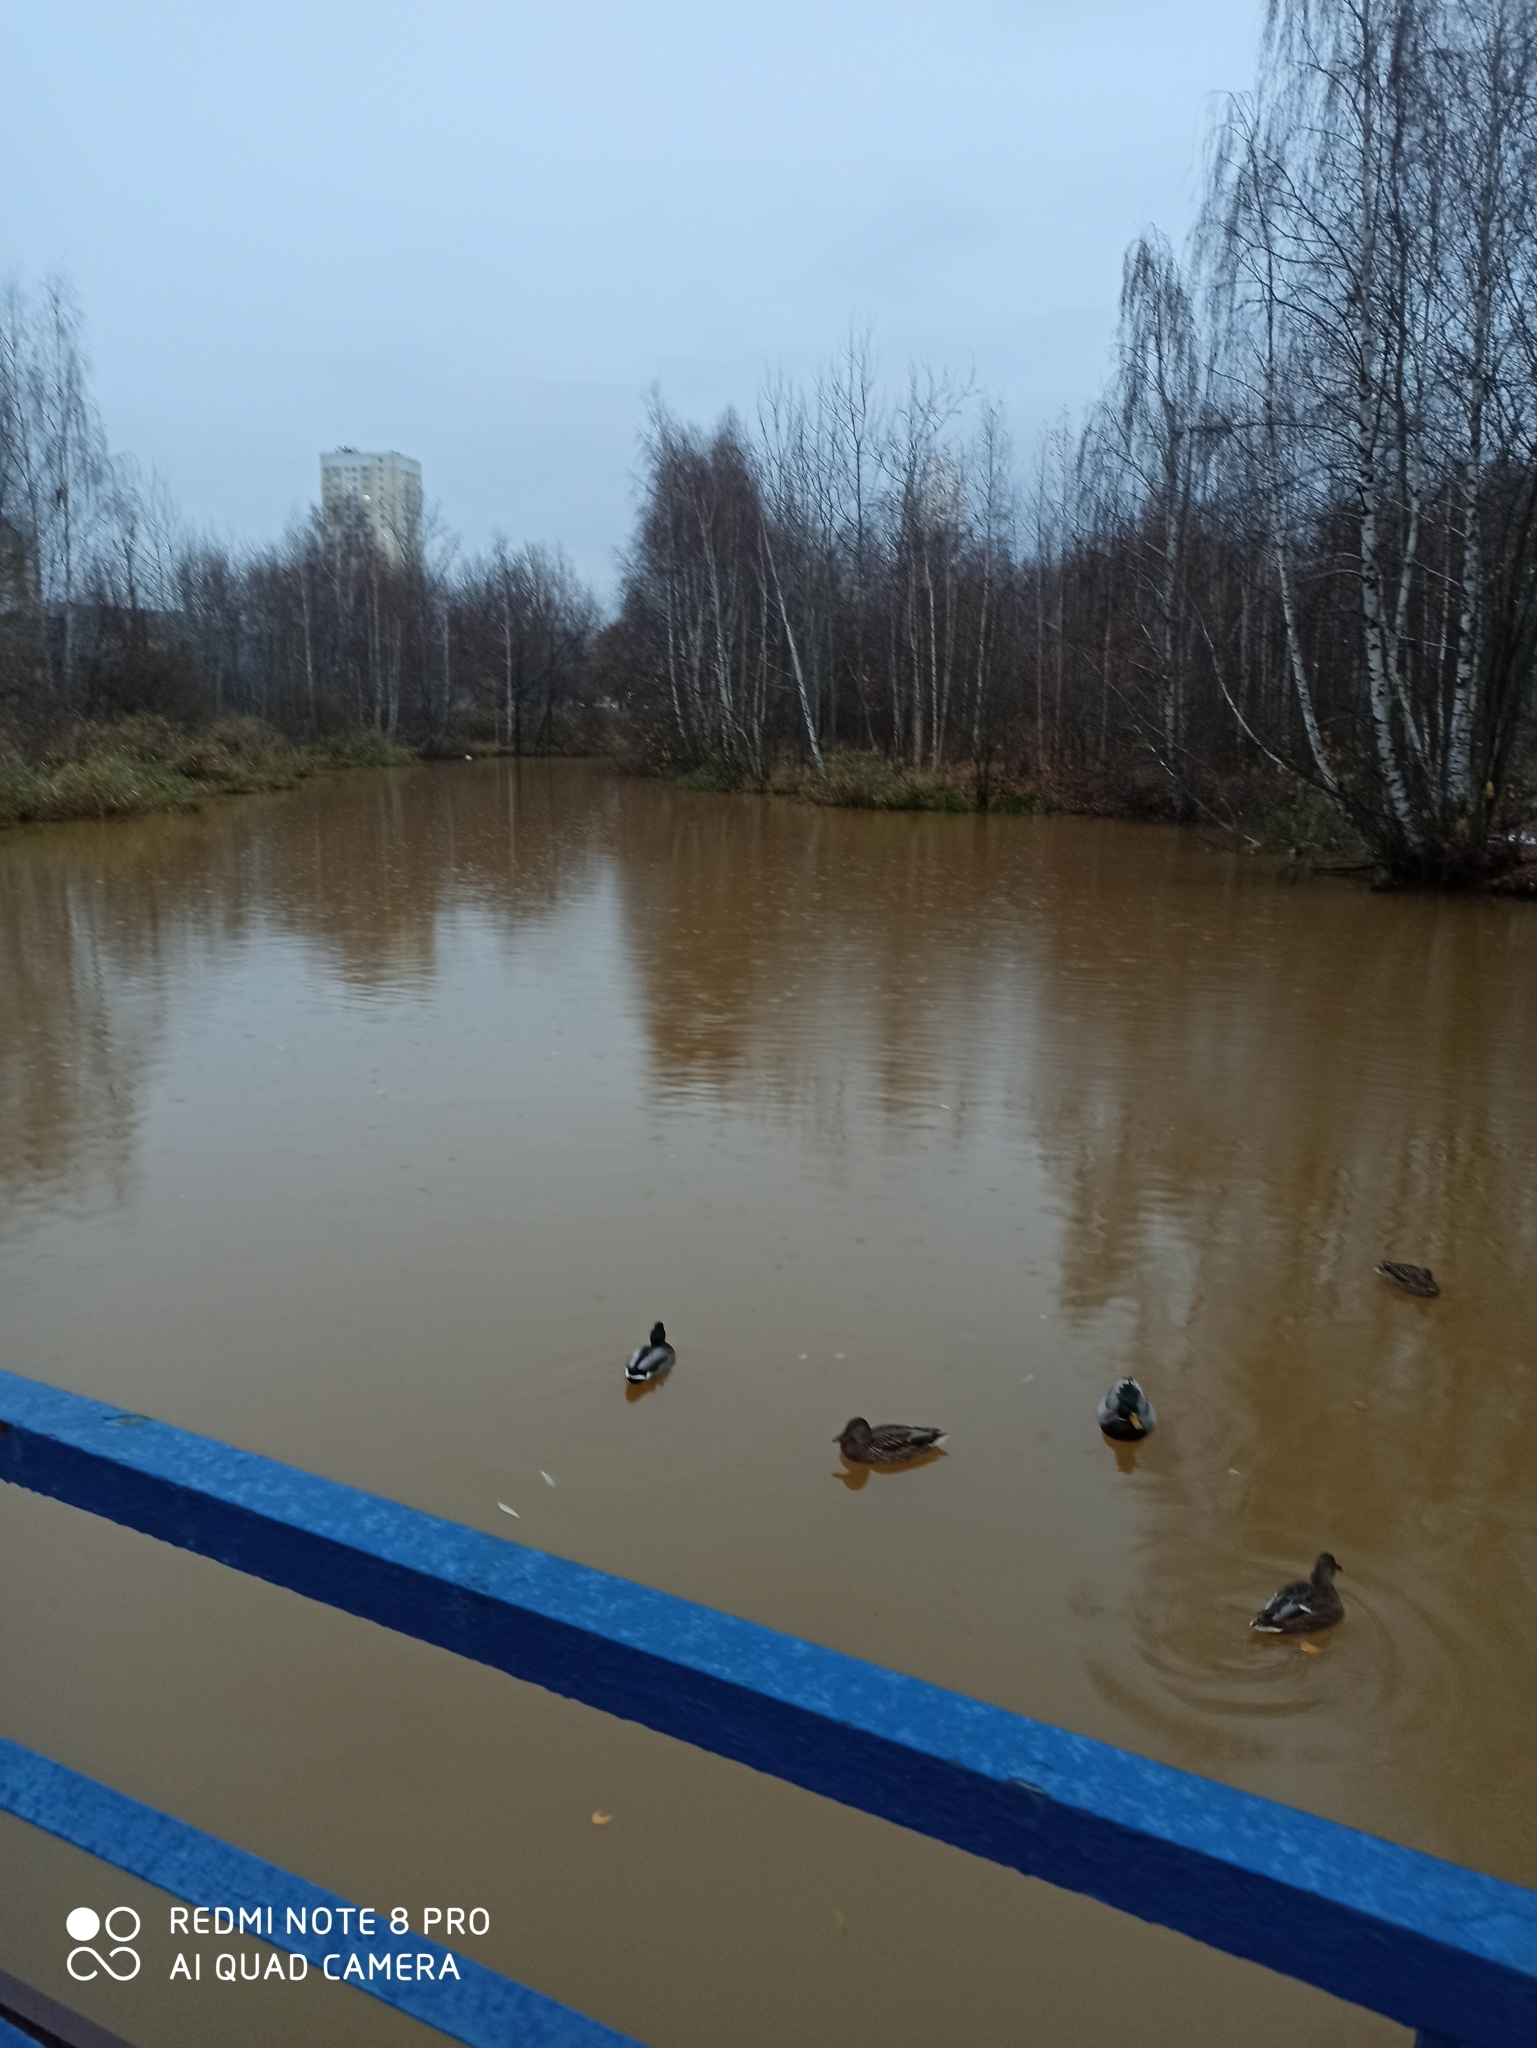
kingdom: Animalia
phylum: Chordata
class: Aves
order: Anseriformes
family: Anatidae
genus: Anas
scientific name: Anas platyrhynchos
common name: Mallard
